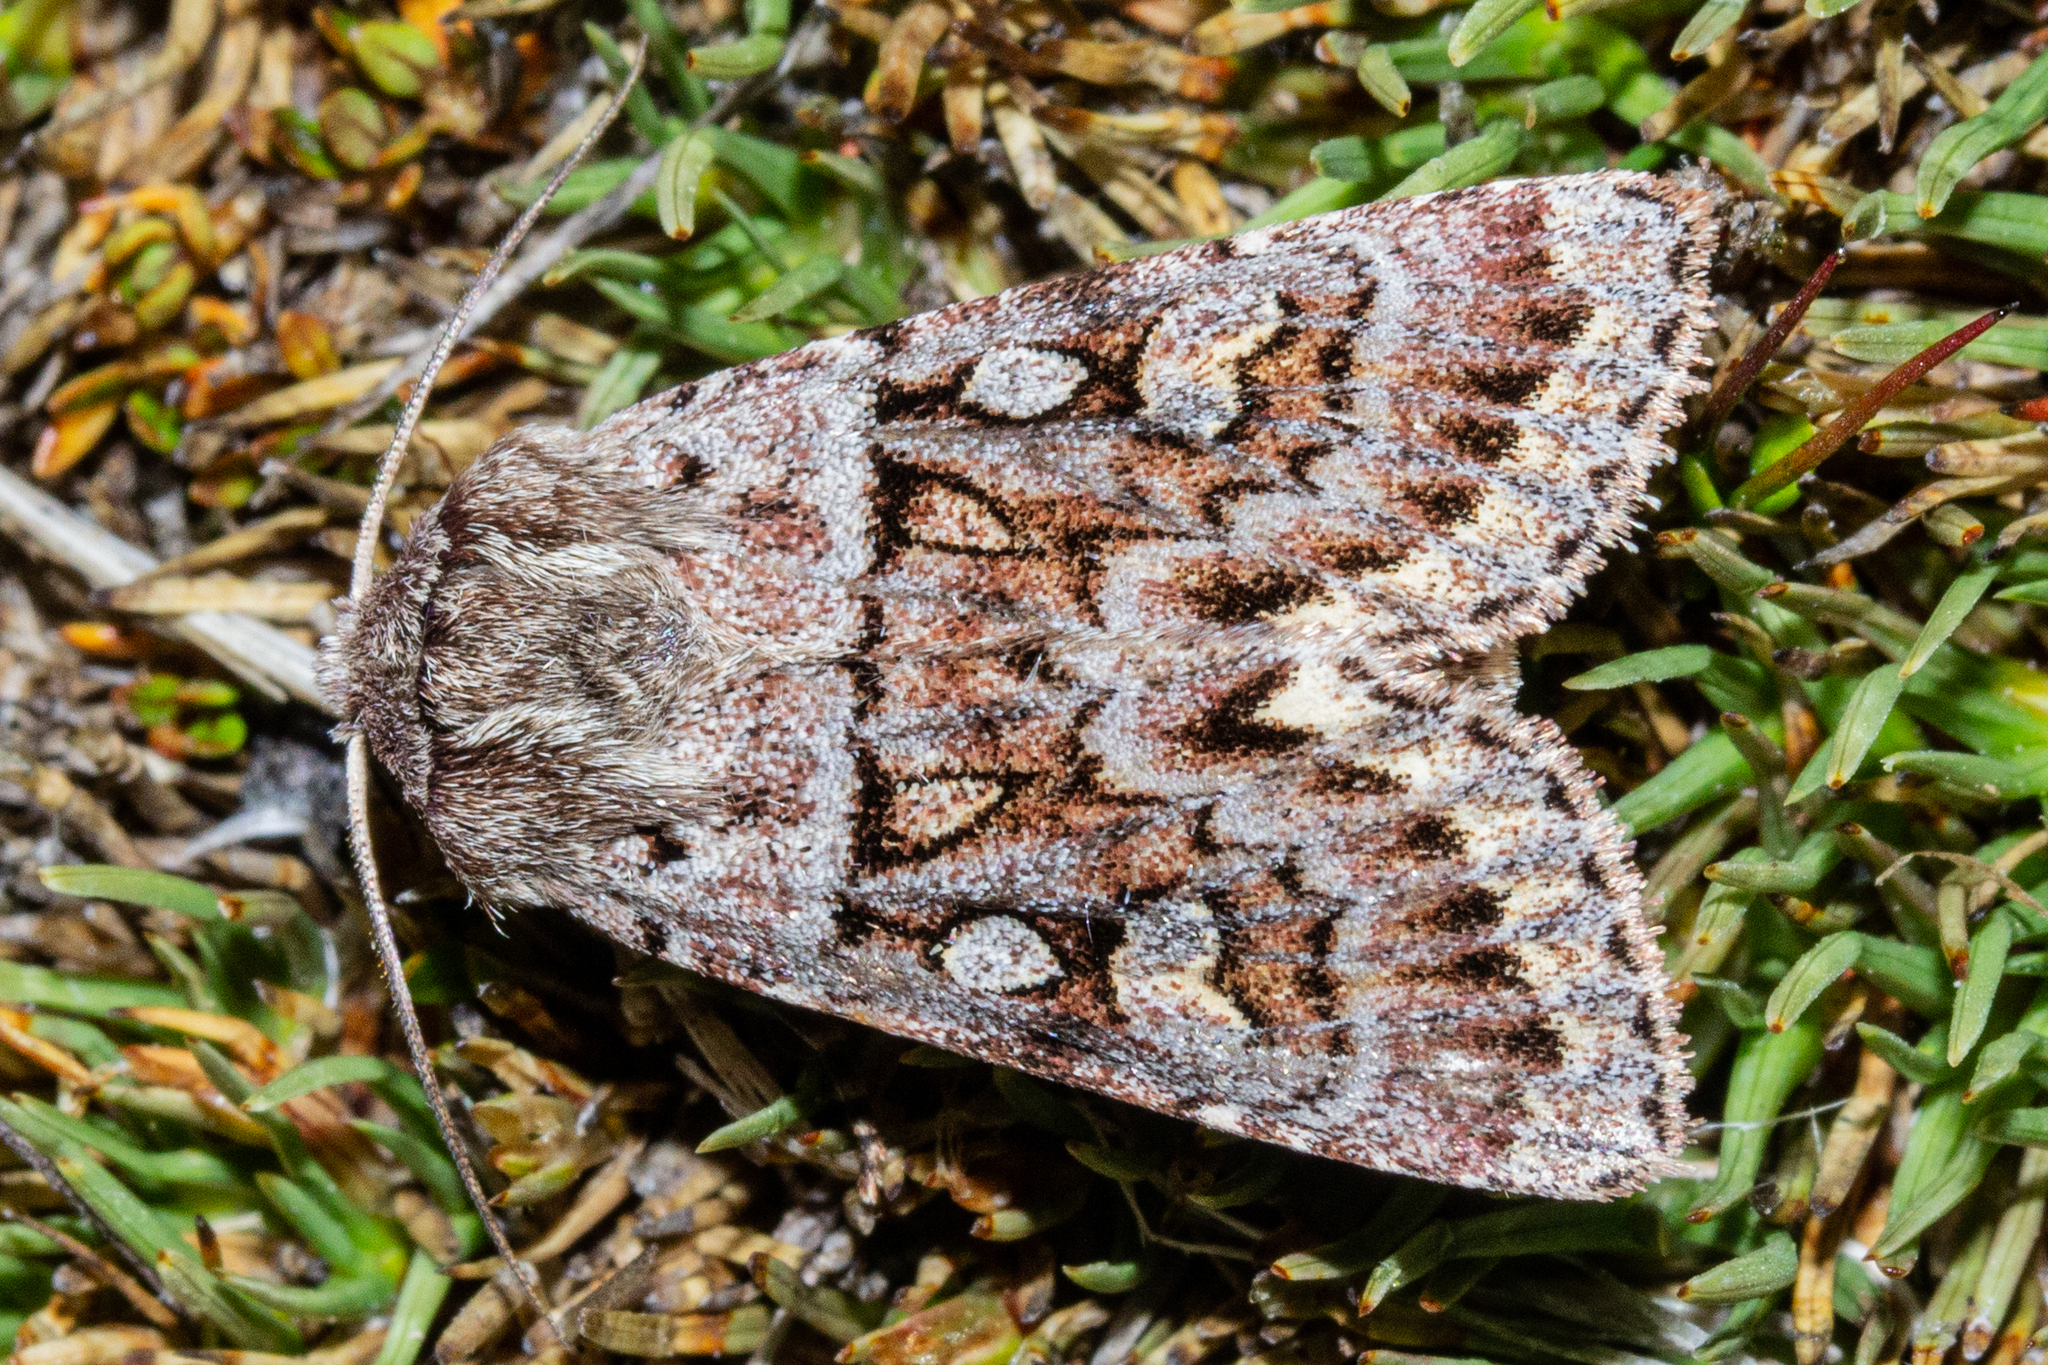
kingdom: Animalia
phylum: Arthropoda
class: Insecta
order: Lepidoptera
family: Noctuidae
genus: Ichneutica
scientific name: Ichneutica marmorata
